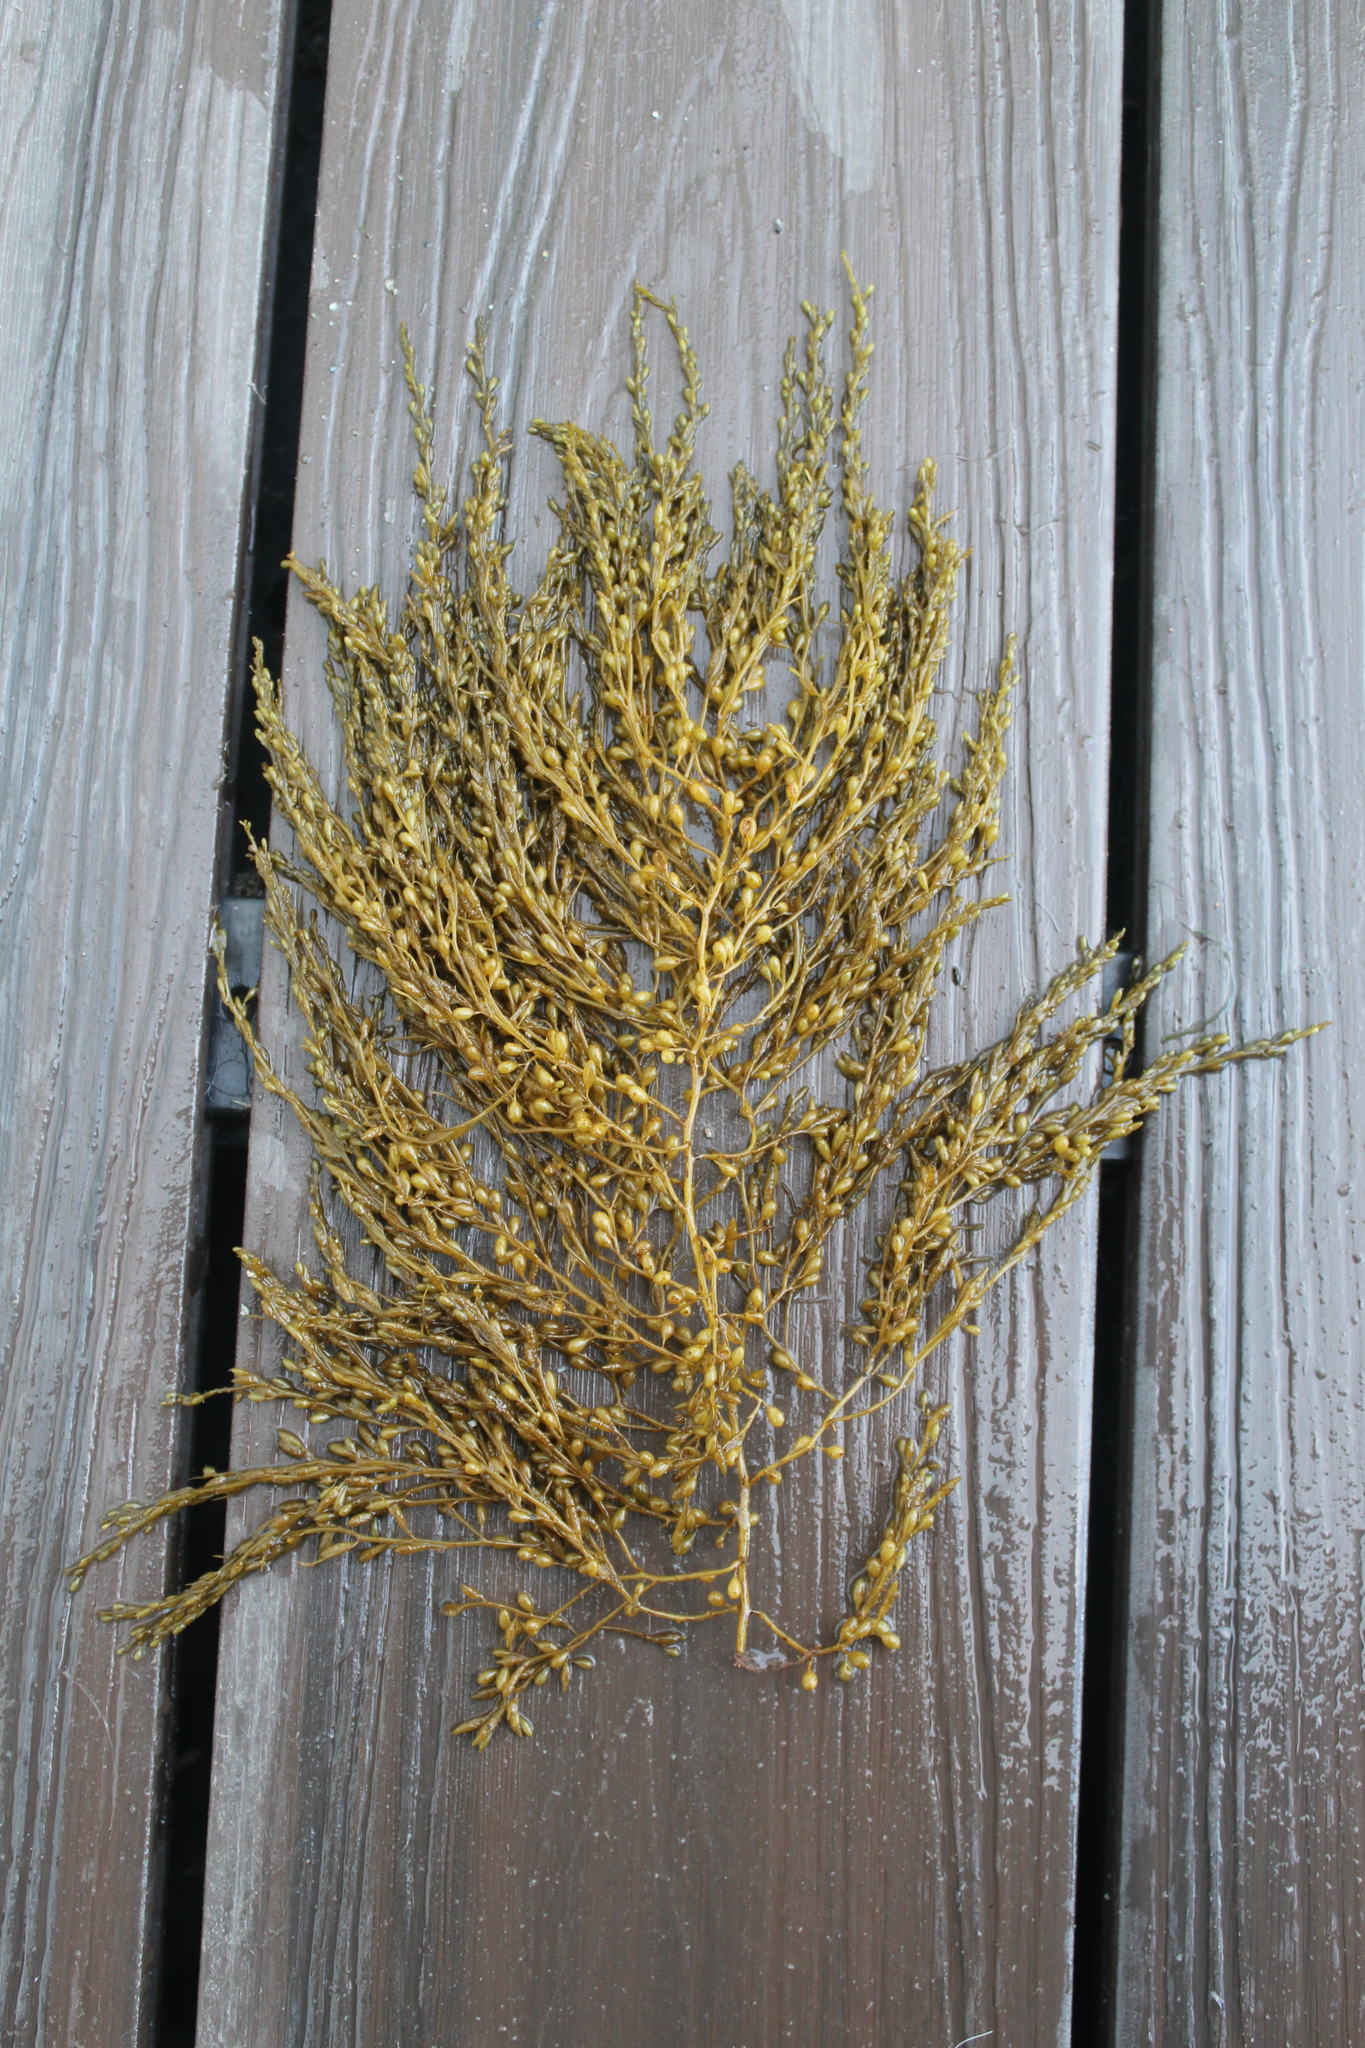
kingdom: Chromista
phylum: Ochrophyta
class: Phaeophyceae
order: Fucales
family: Sargassaceae
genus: Sargassum
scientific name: Sargassum muticum
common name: Japweed
